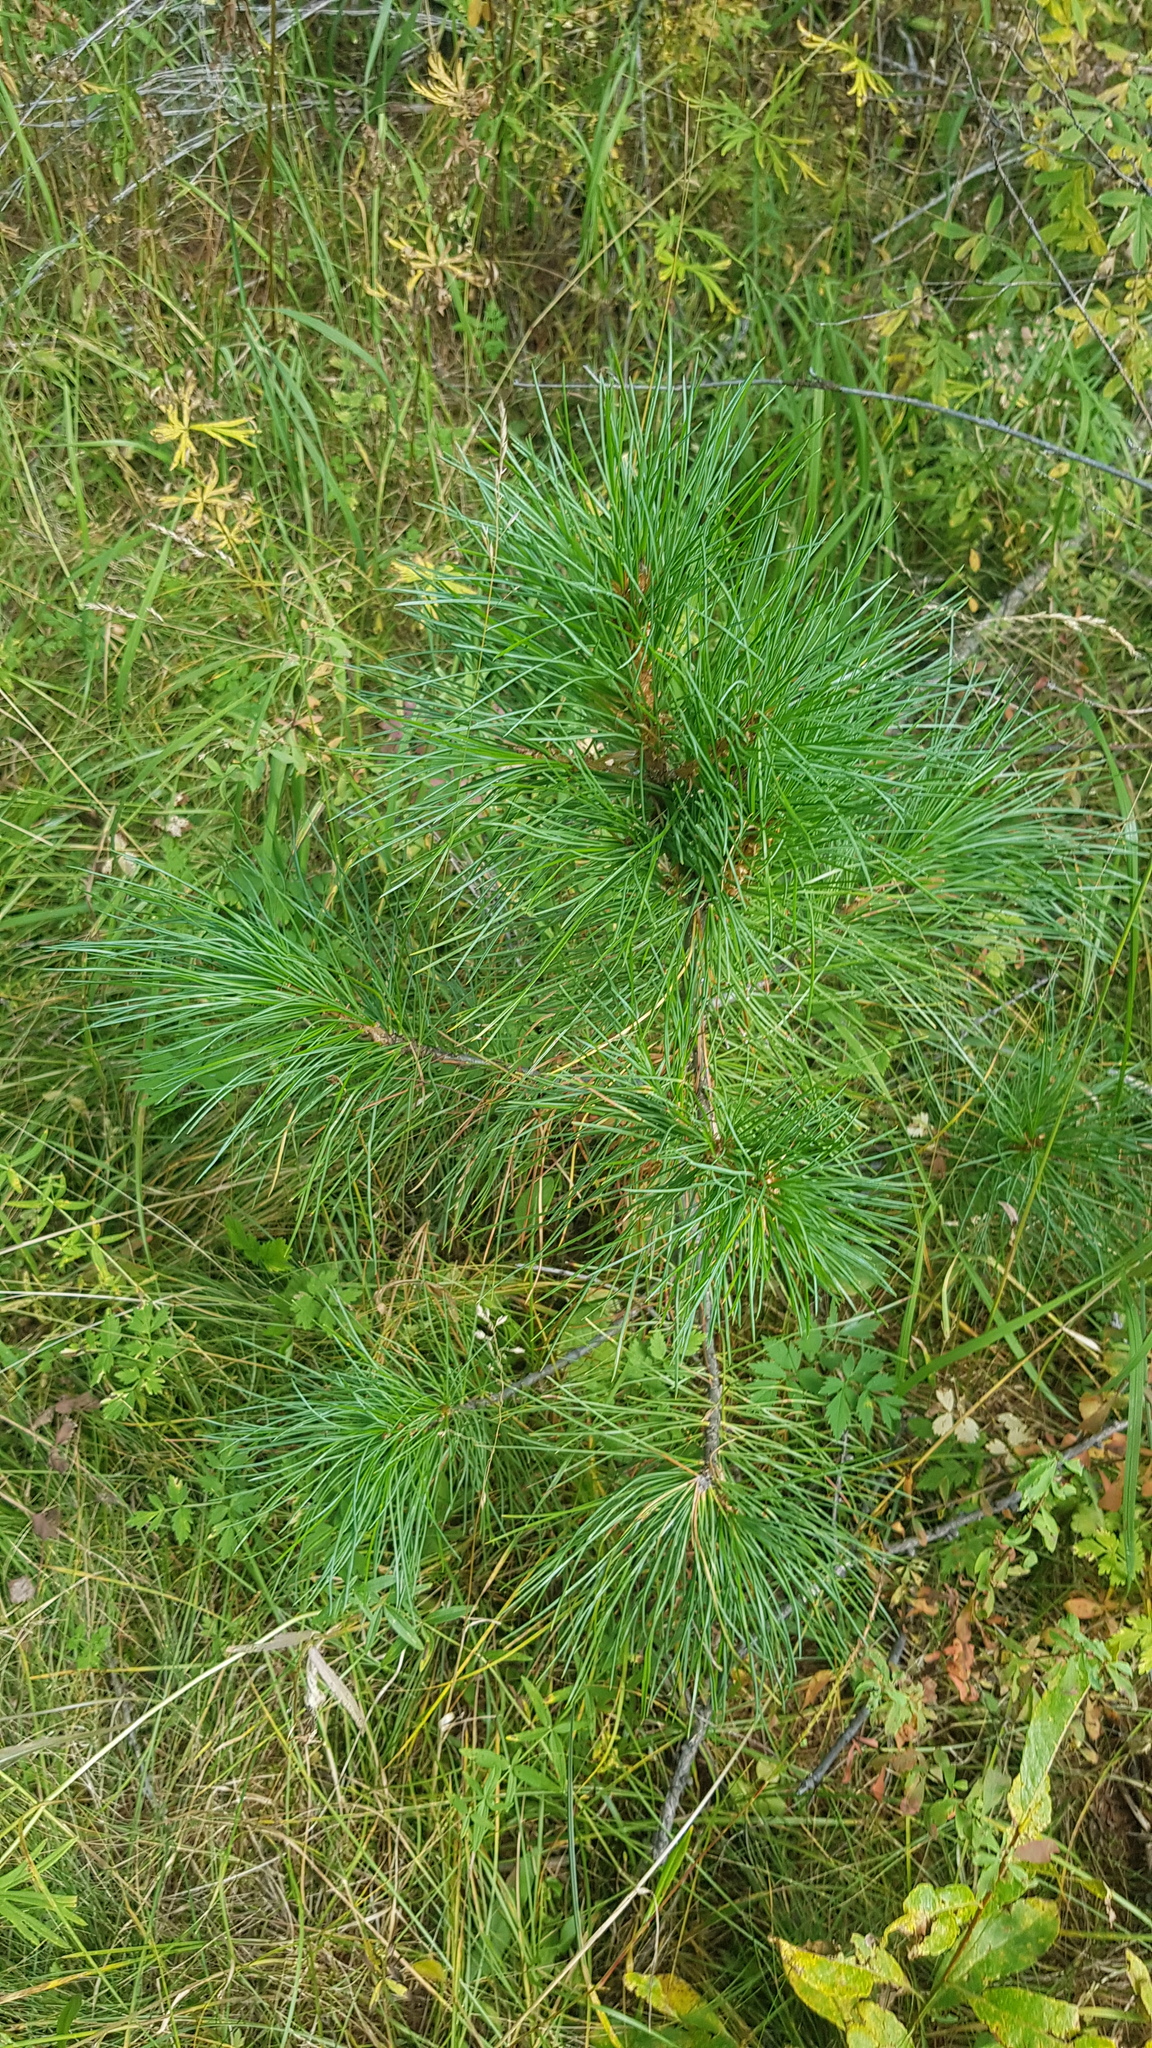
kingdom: Plantae
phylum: Tracheophyta
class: Pinopsida
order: Pinales
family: Pinaceae
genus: Pinus
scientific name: Pinus sibirica
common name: Siberian pine
